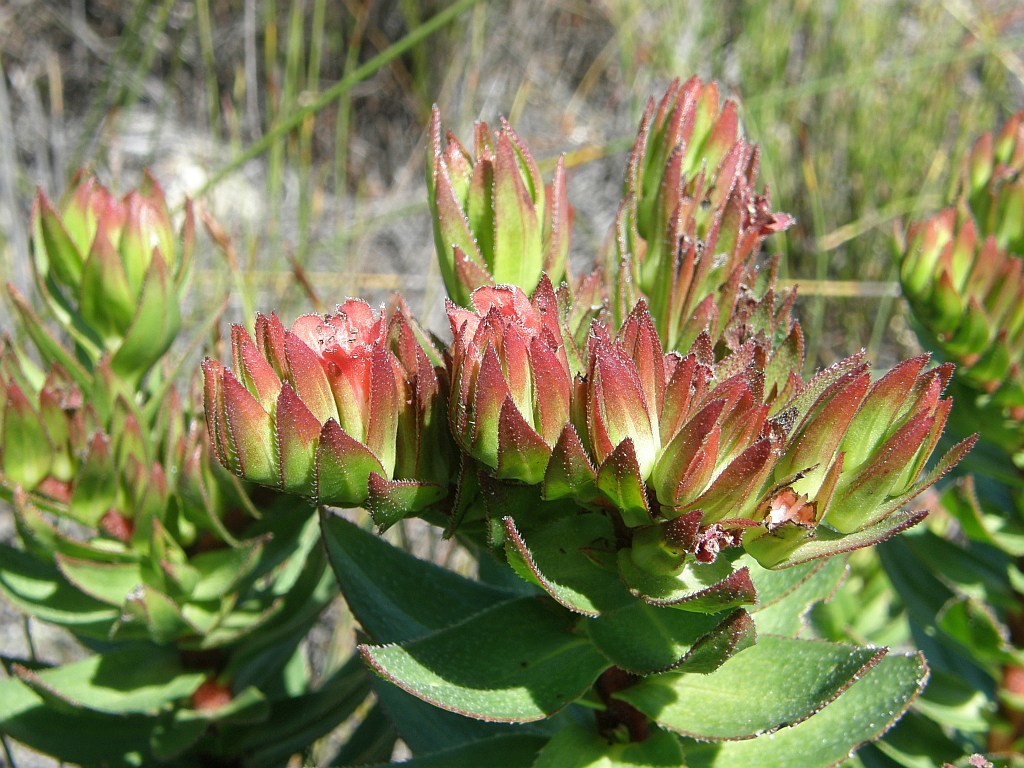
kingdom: Plantae
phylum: Tracheophyta
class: Magnoliopsida
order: Boraginales
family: Boraginaceae
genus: Lobostemon
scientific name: Lobostemon sanguineus
